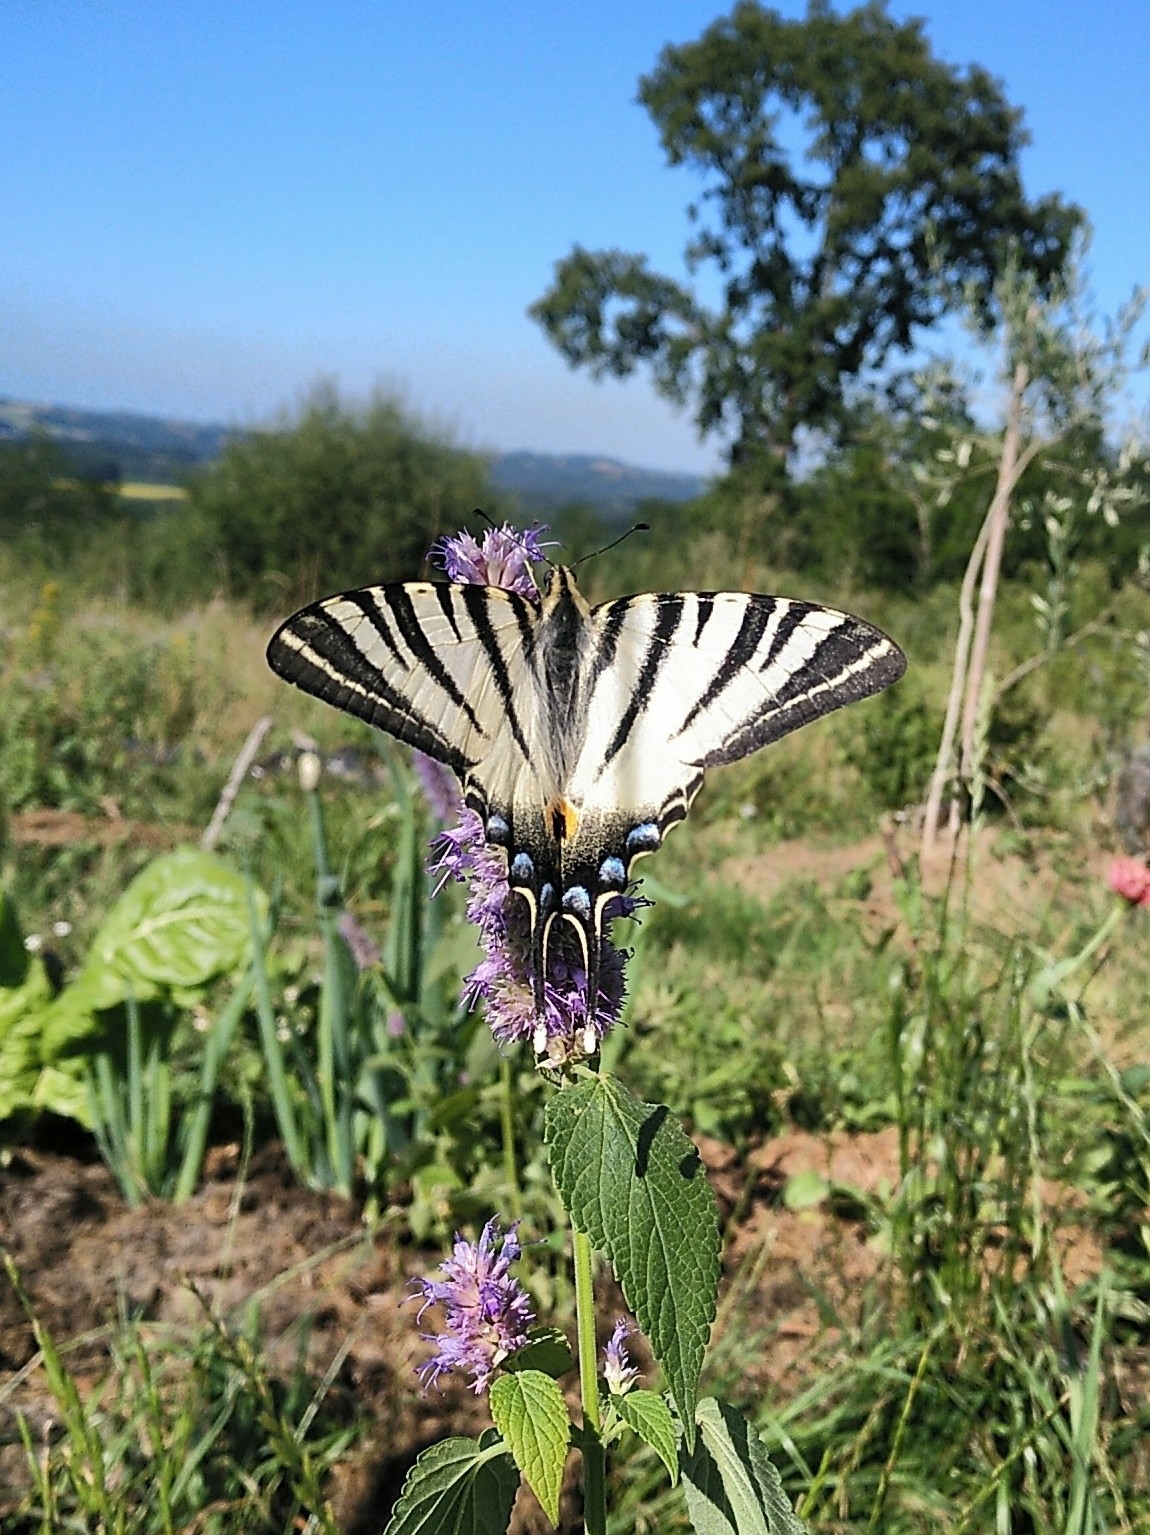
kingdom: Animalia
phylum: Arthropoda
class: Insecta
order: Lepidoptera
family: Papilionidae
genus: Iphiclides
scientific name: Iphiclides podalirius
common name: Scarce swallowtail
